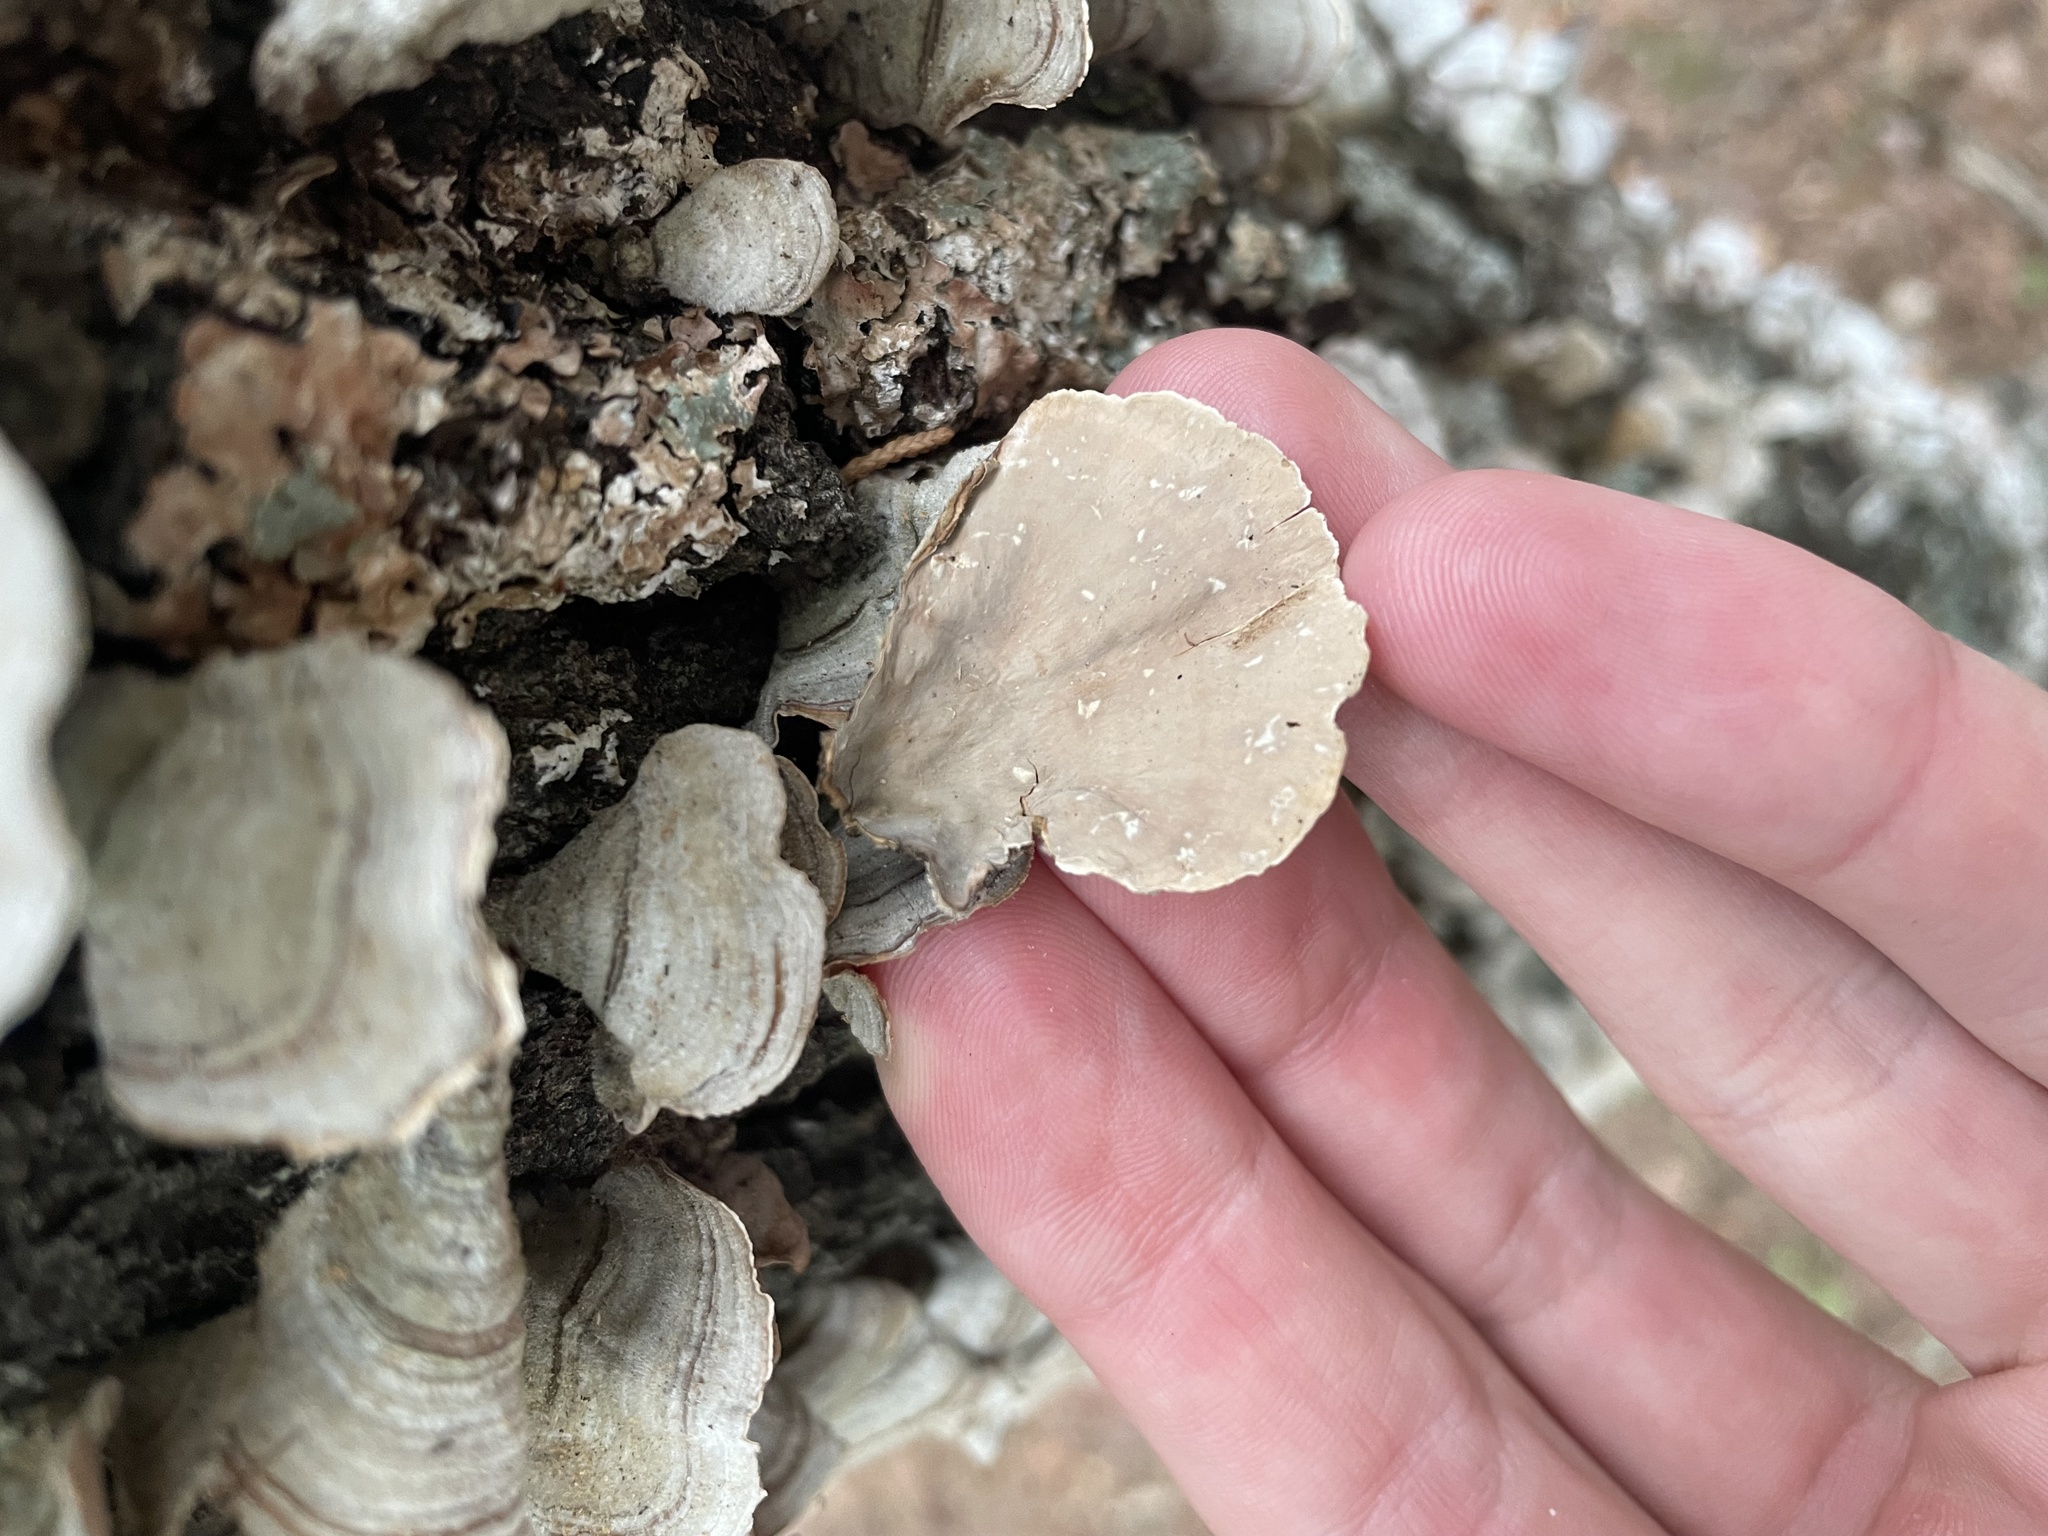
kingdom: Fungi
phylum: Basidiomycota
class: Agaricomycetes
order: Russulales
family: Stereaceae
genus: Stereum
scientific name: Stereum ostrea
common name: False turkeytail
